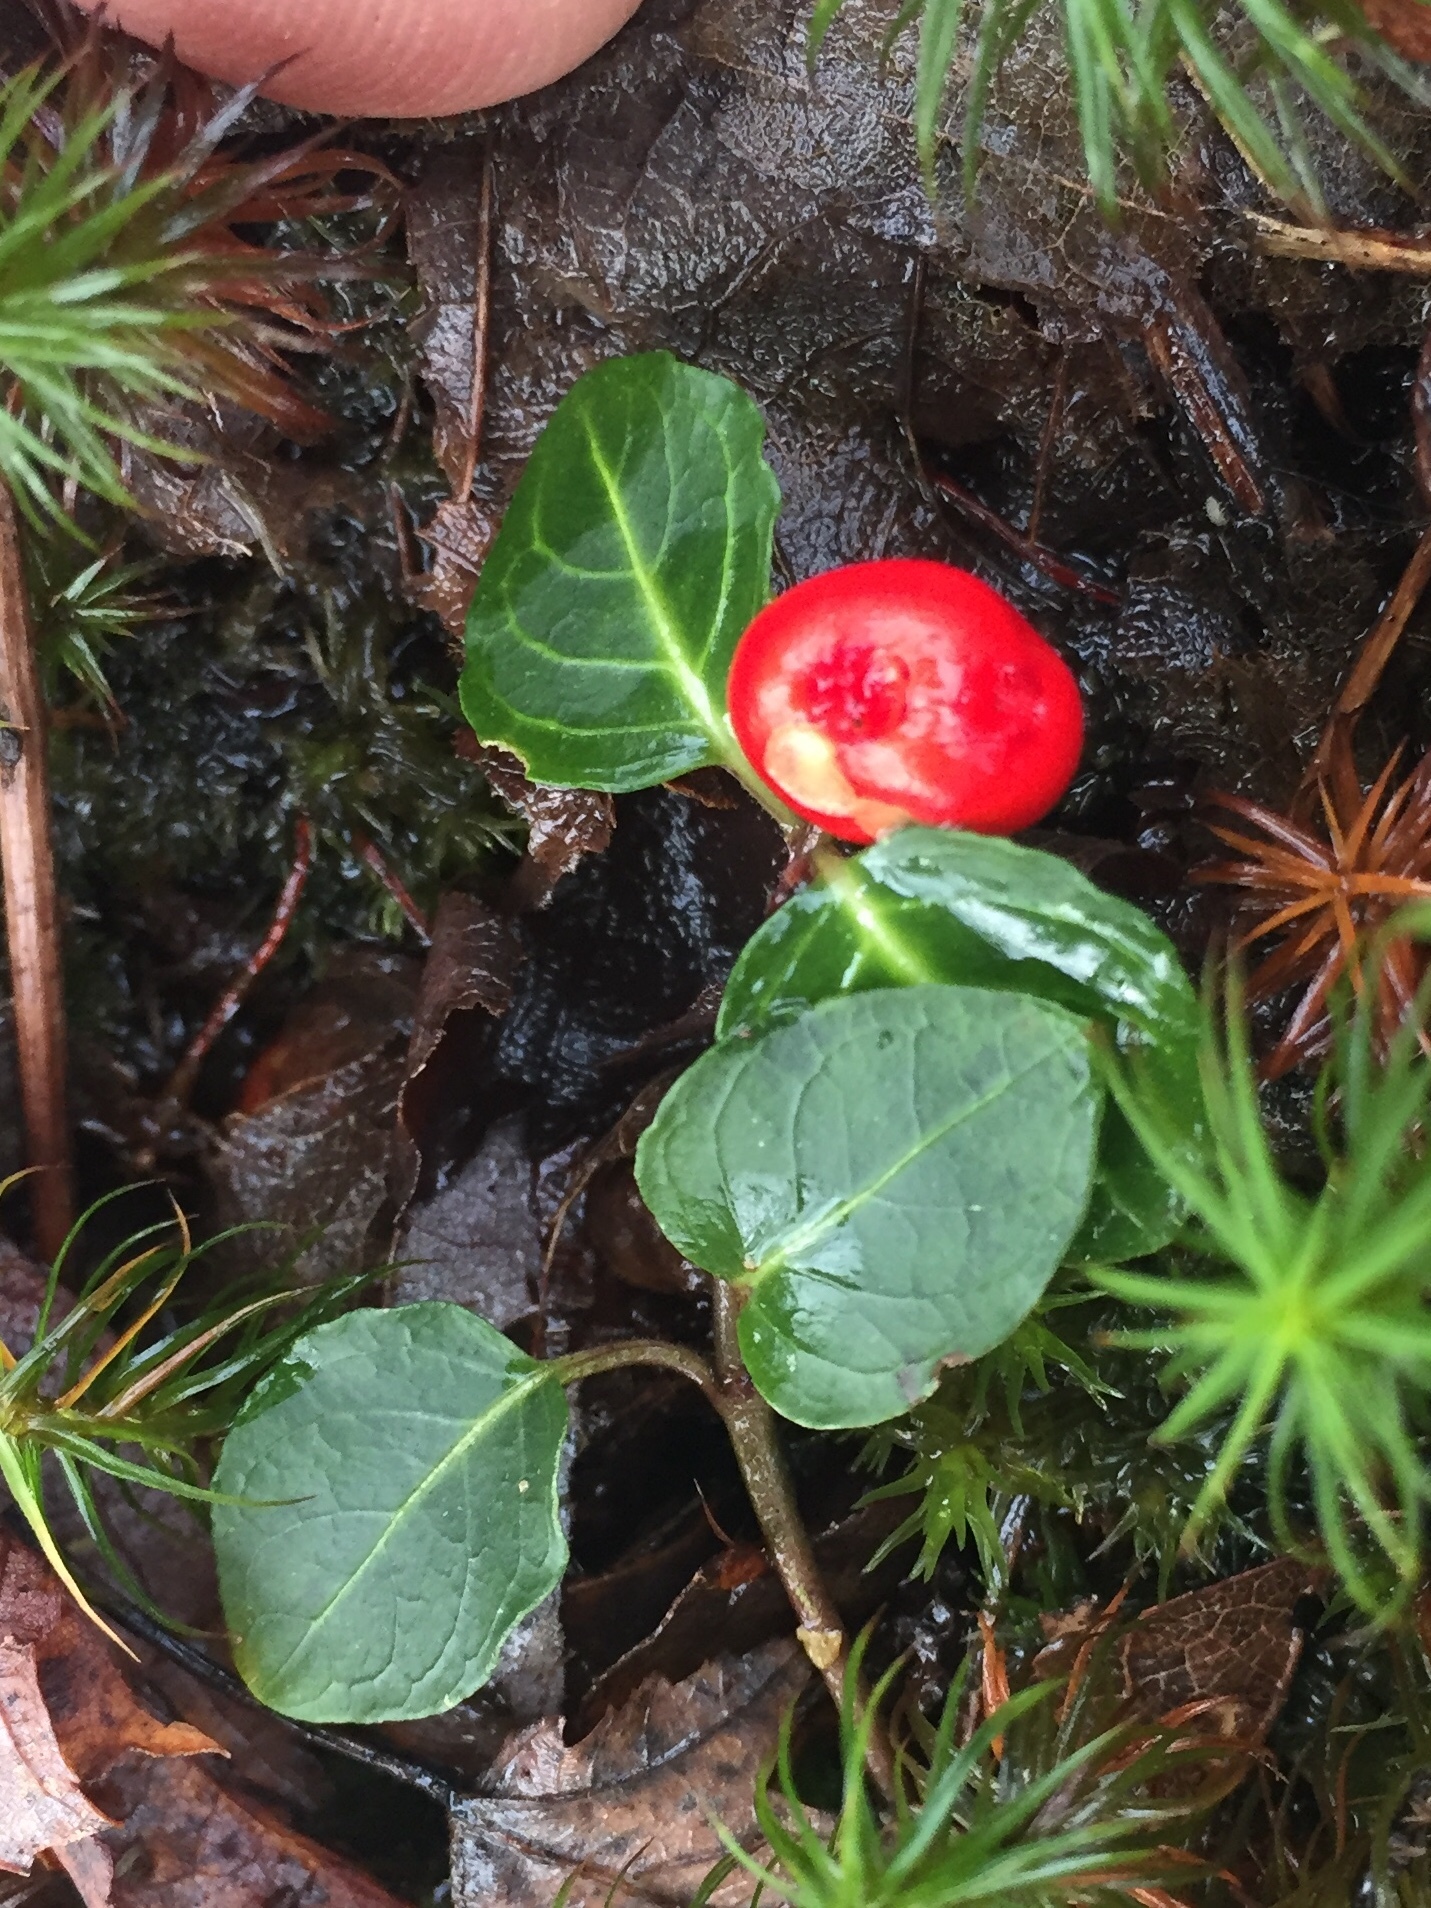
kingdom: Plantae
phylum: Tracheophyta
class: Magnoliopsida
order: Gentianales
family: Rubiaceae
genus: Mitchella
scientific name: Mitchella repens
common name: Partridge-berry
